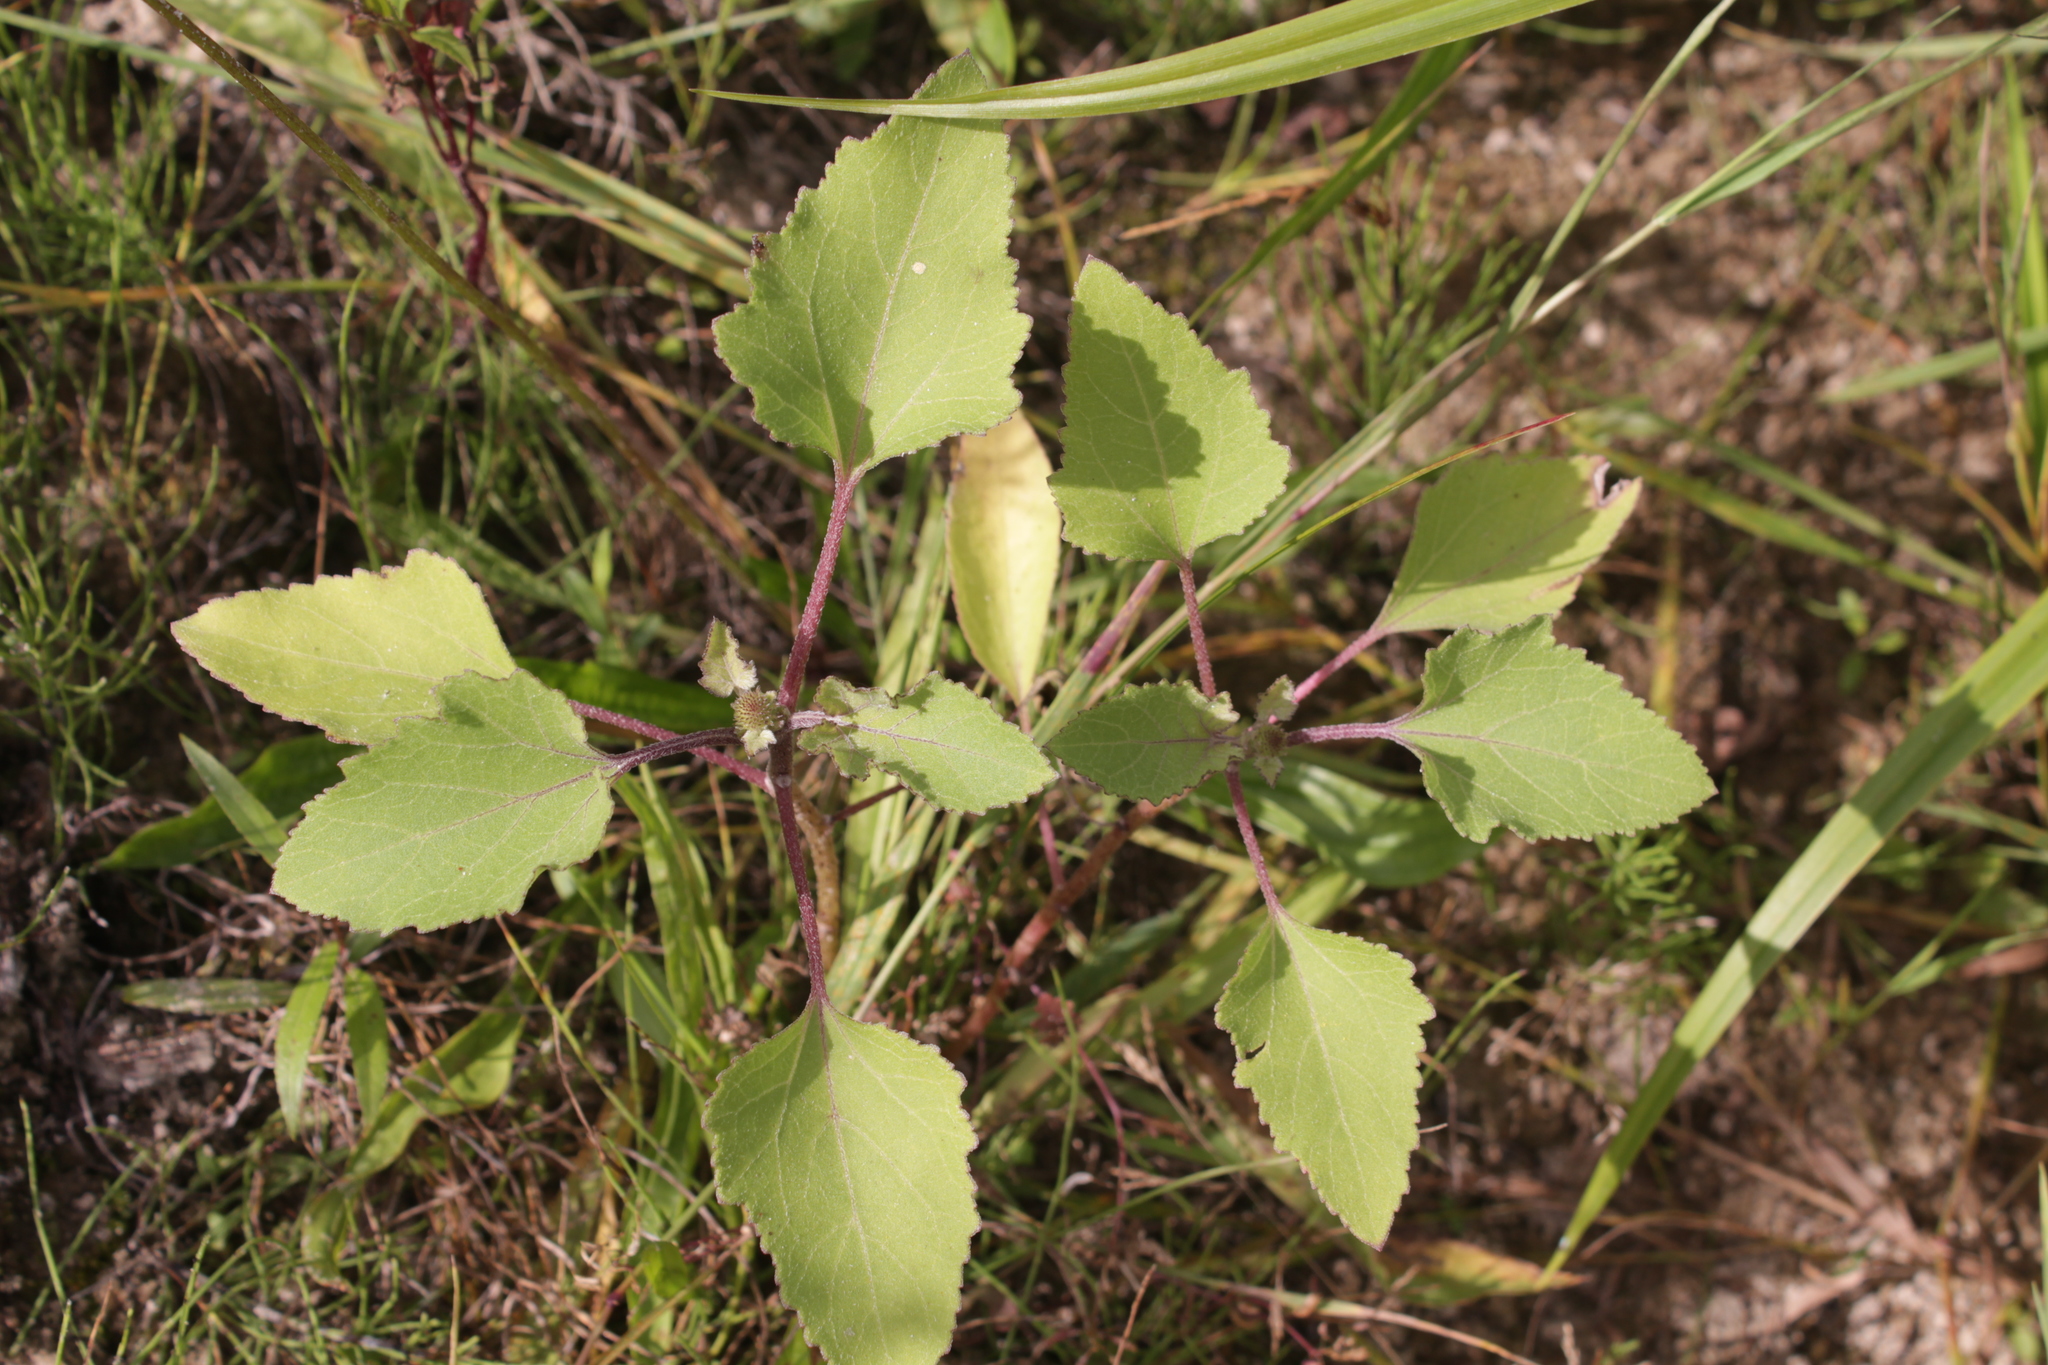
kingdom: Plantae
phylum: Tracheophyta
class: Magnoliopsida
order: Asterales
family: Asteraceae
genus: Xanthium
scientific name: Xanthium orientale
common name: Californian burr
